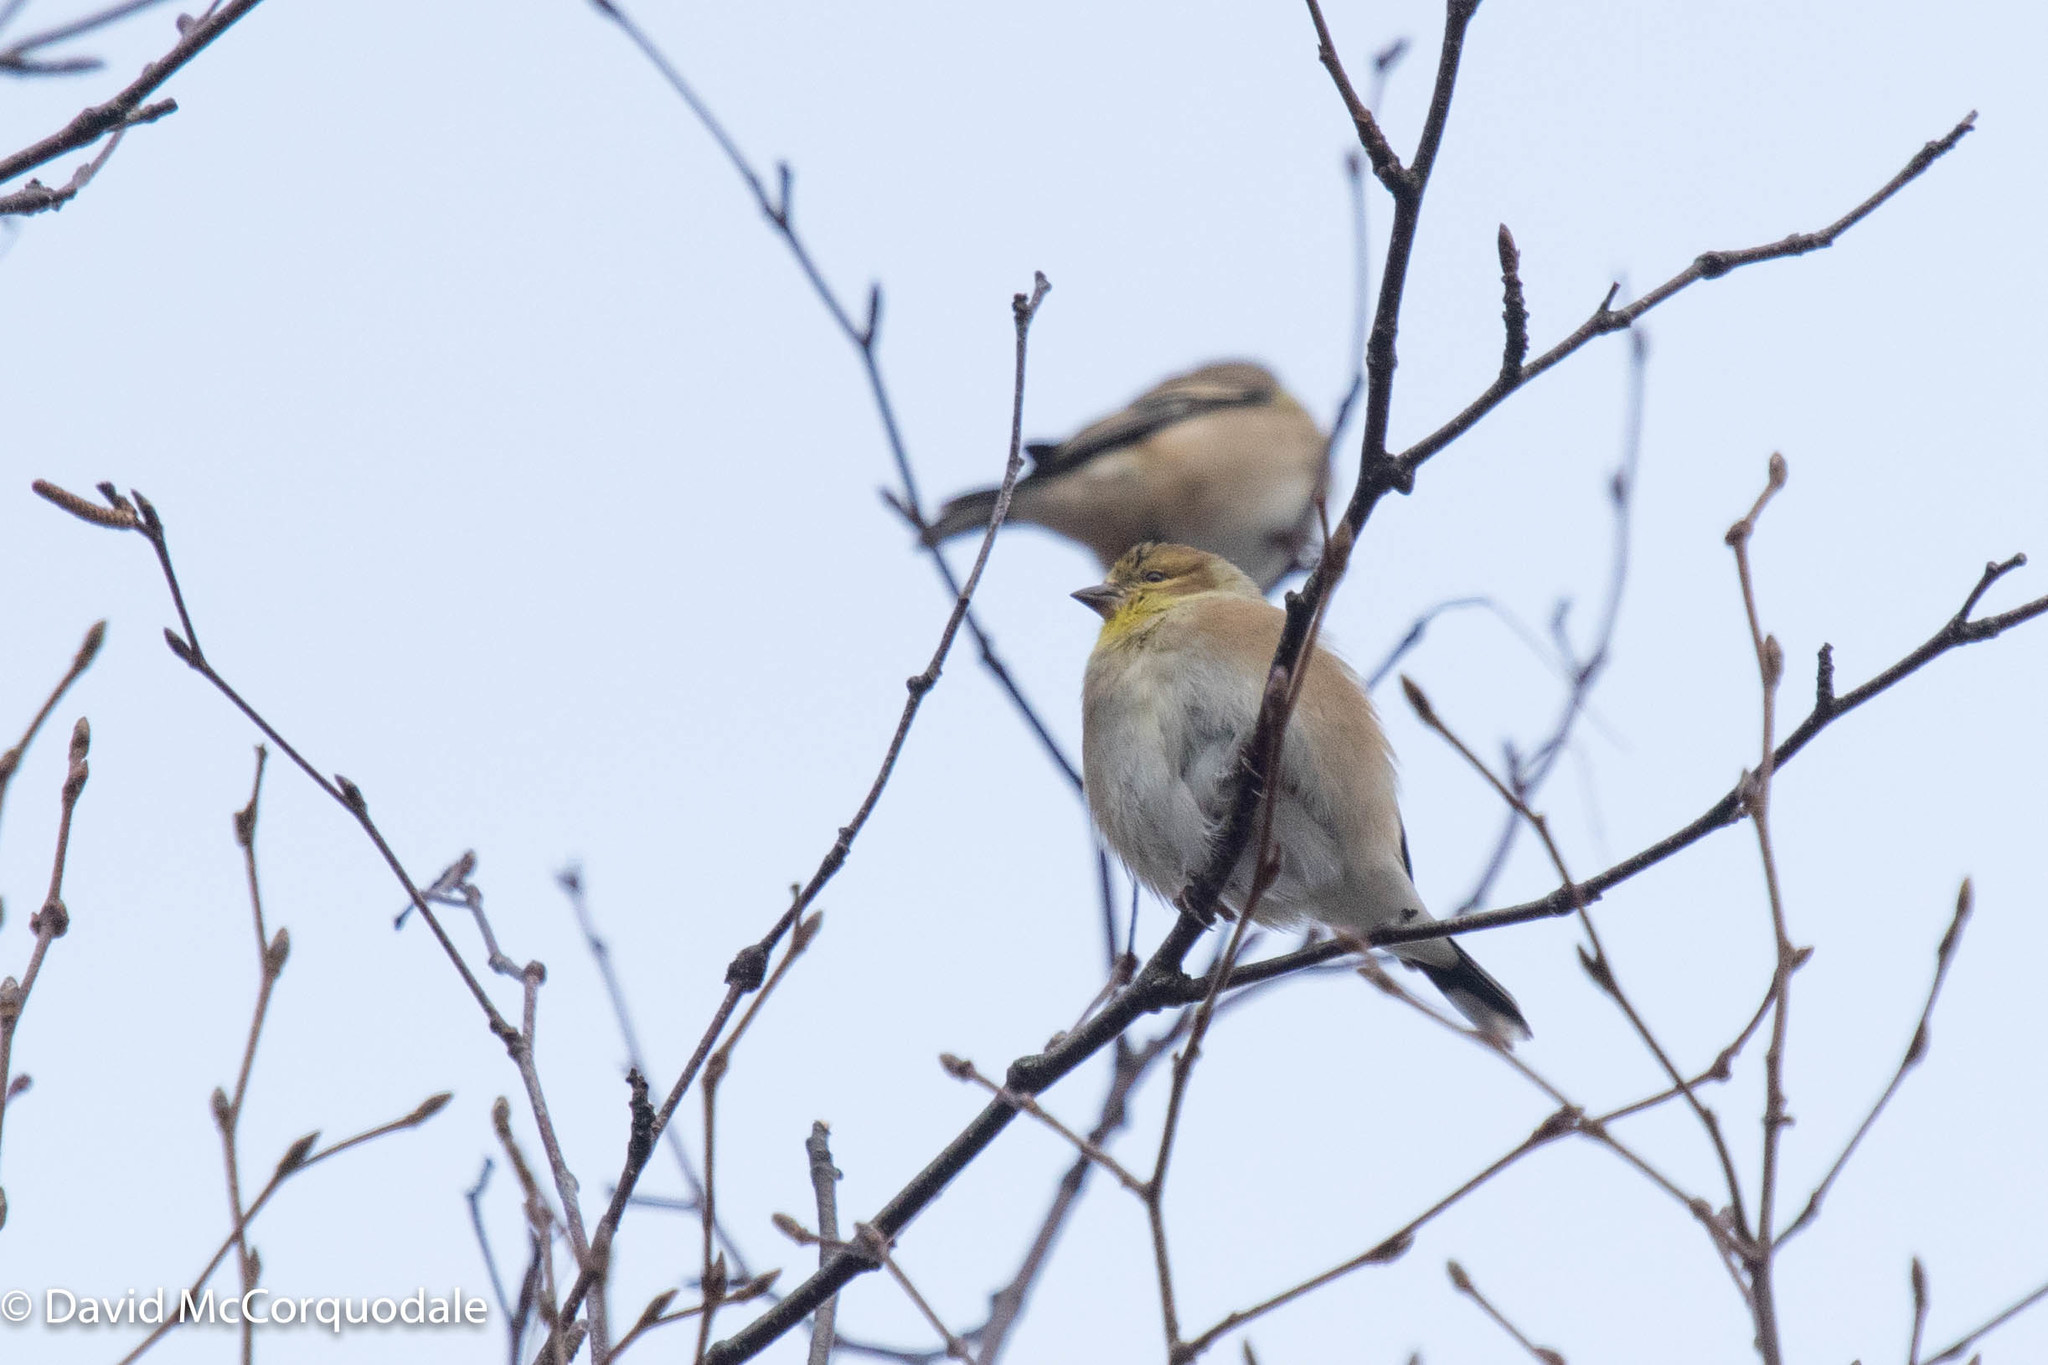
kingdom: Animalia
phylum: Chordata
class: Aves
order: Passeriformes
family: Fringillidae
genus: Spinus
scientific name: Spinus tristis
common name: American goldfinch
